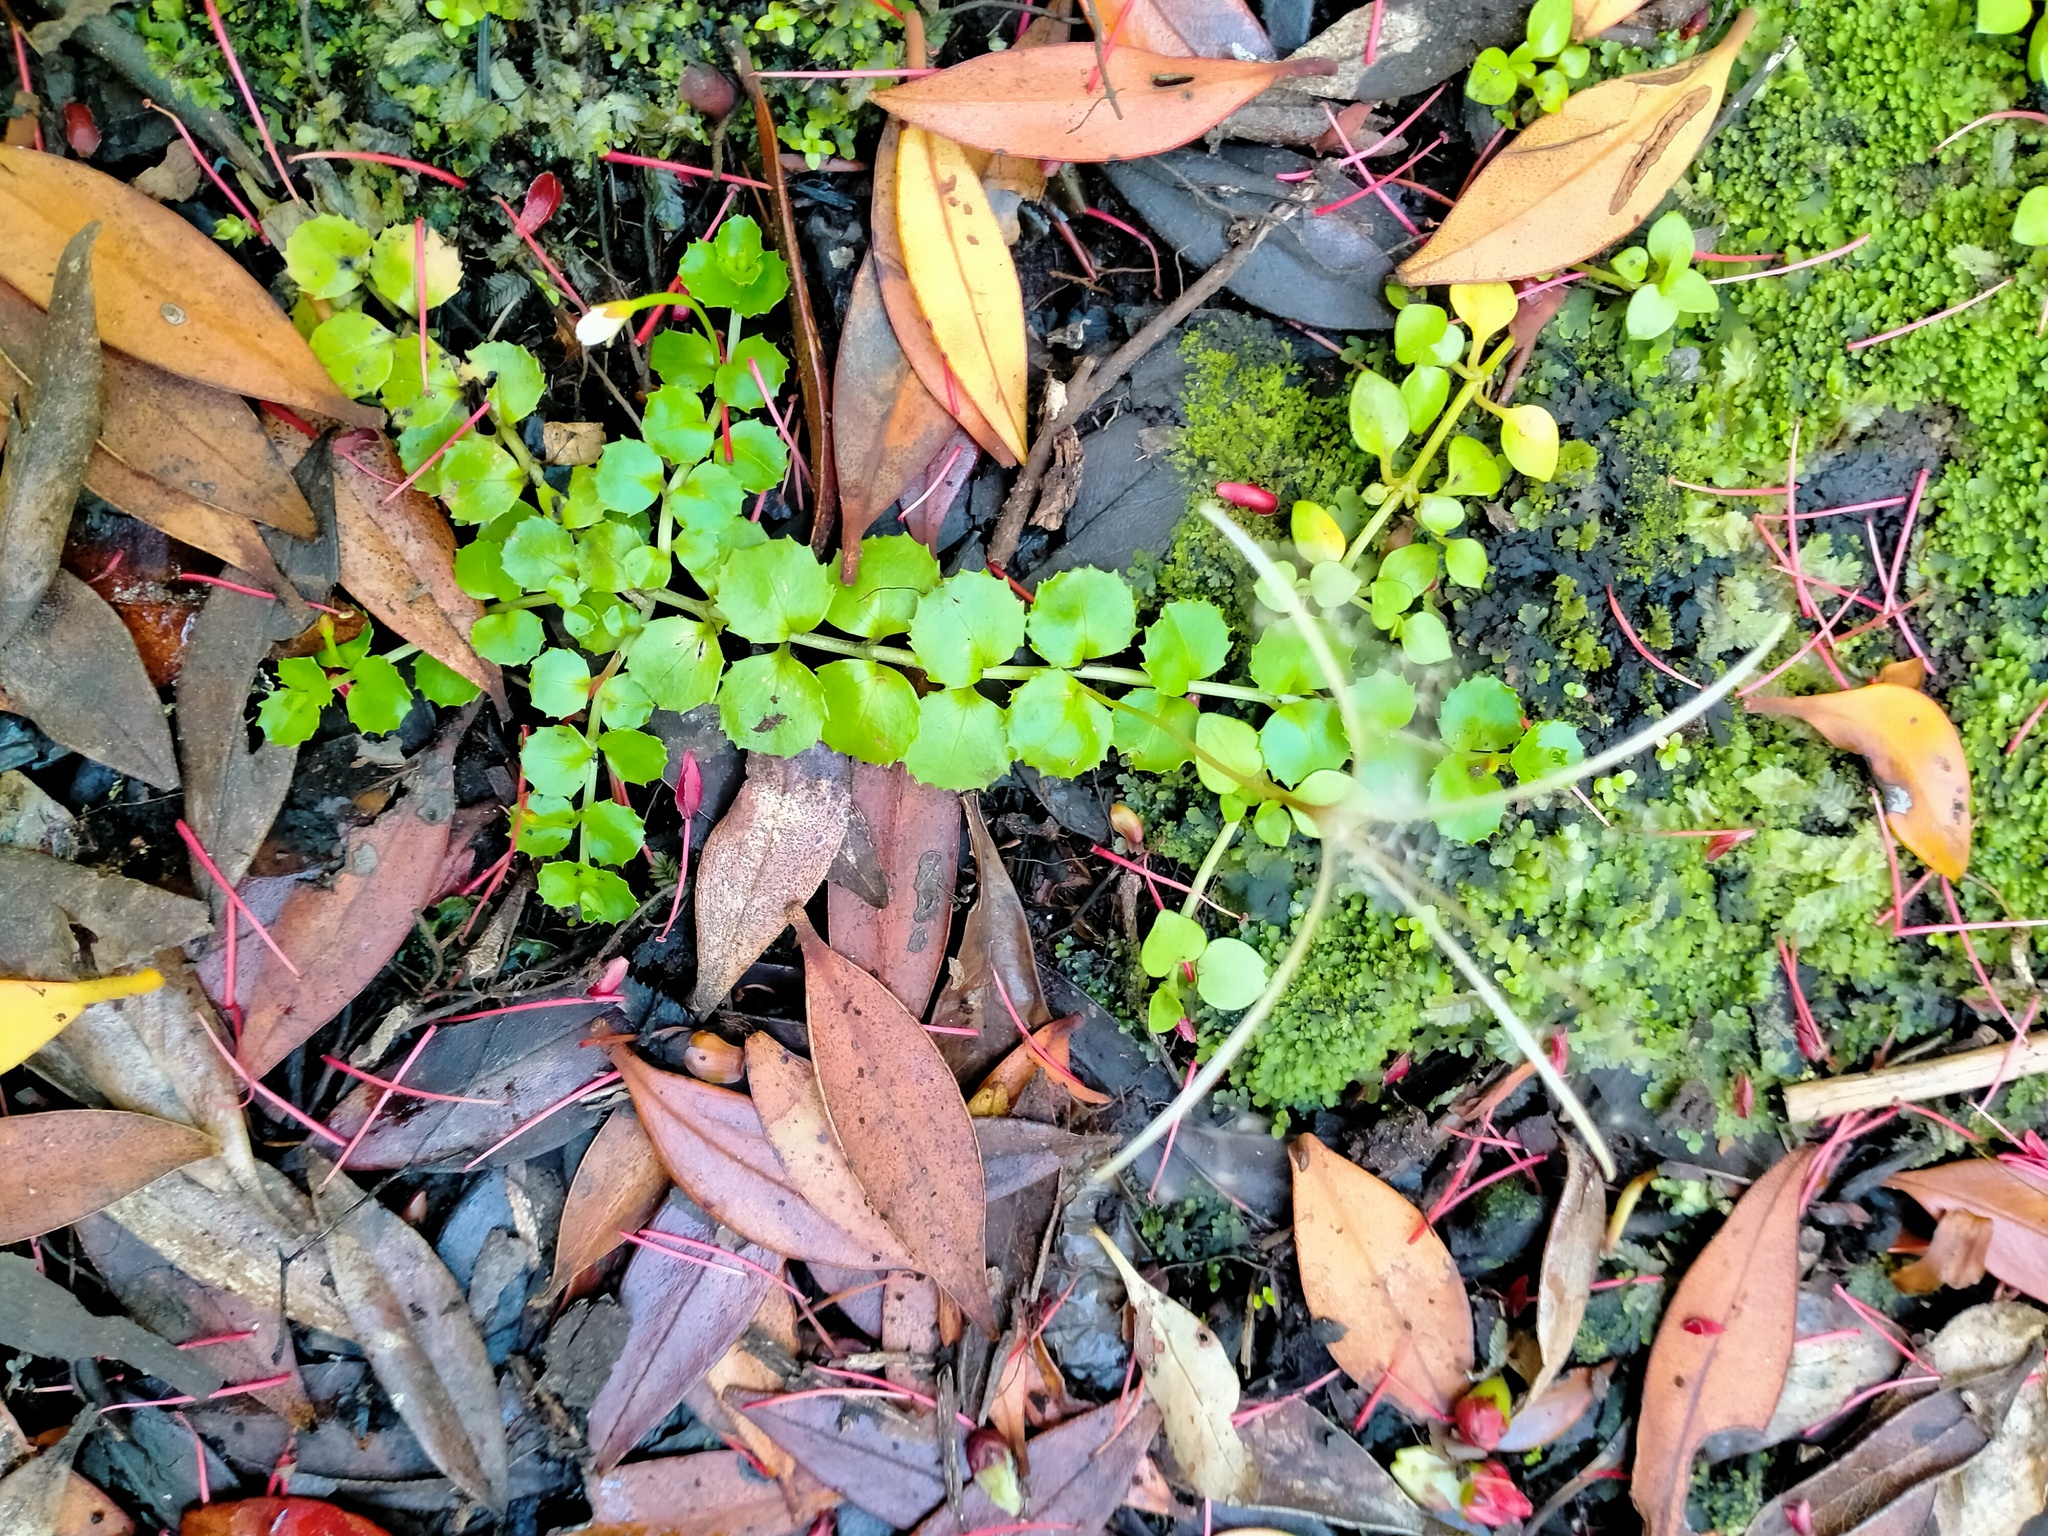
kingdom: Plantae
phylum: Tracheophyta
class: Magnoliopsida
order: Myrtales
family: Onagraceae
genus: Epilobium
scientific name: Epilobium pedunculare
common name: Rockery willowherb
